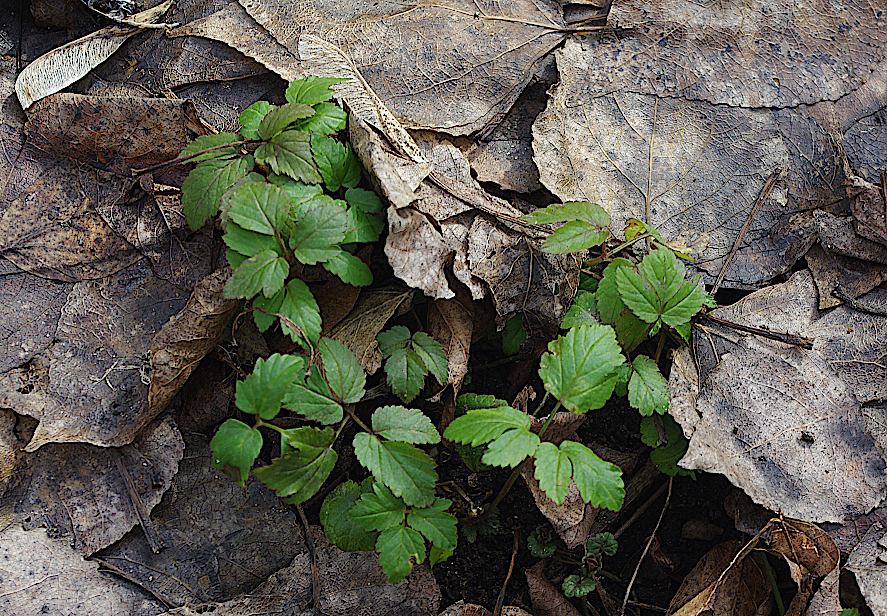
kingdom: Plantae
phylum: Tracheophyta
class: Magnoliopsida
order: Apiales
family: Apiaceae
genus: Aegopodium
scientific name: Aegopodium podagraria
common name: Ground-elder
